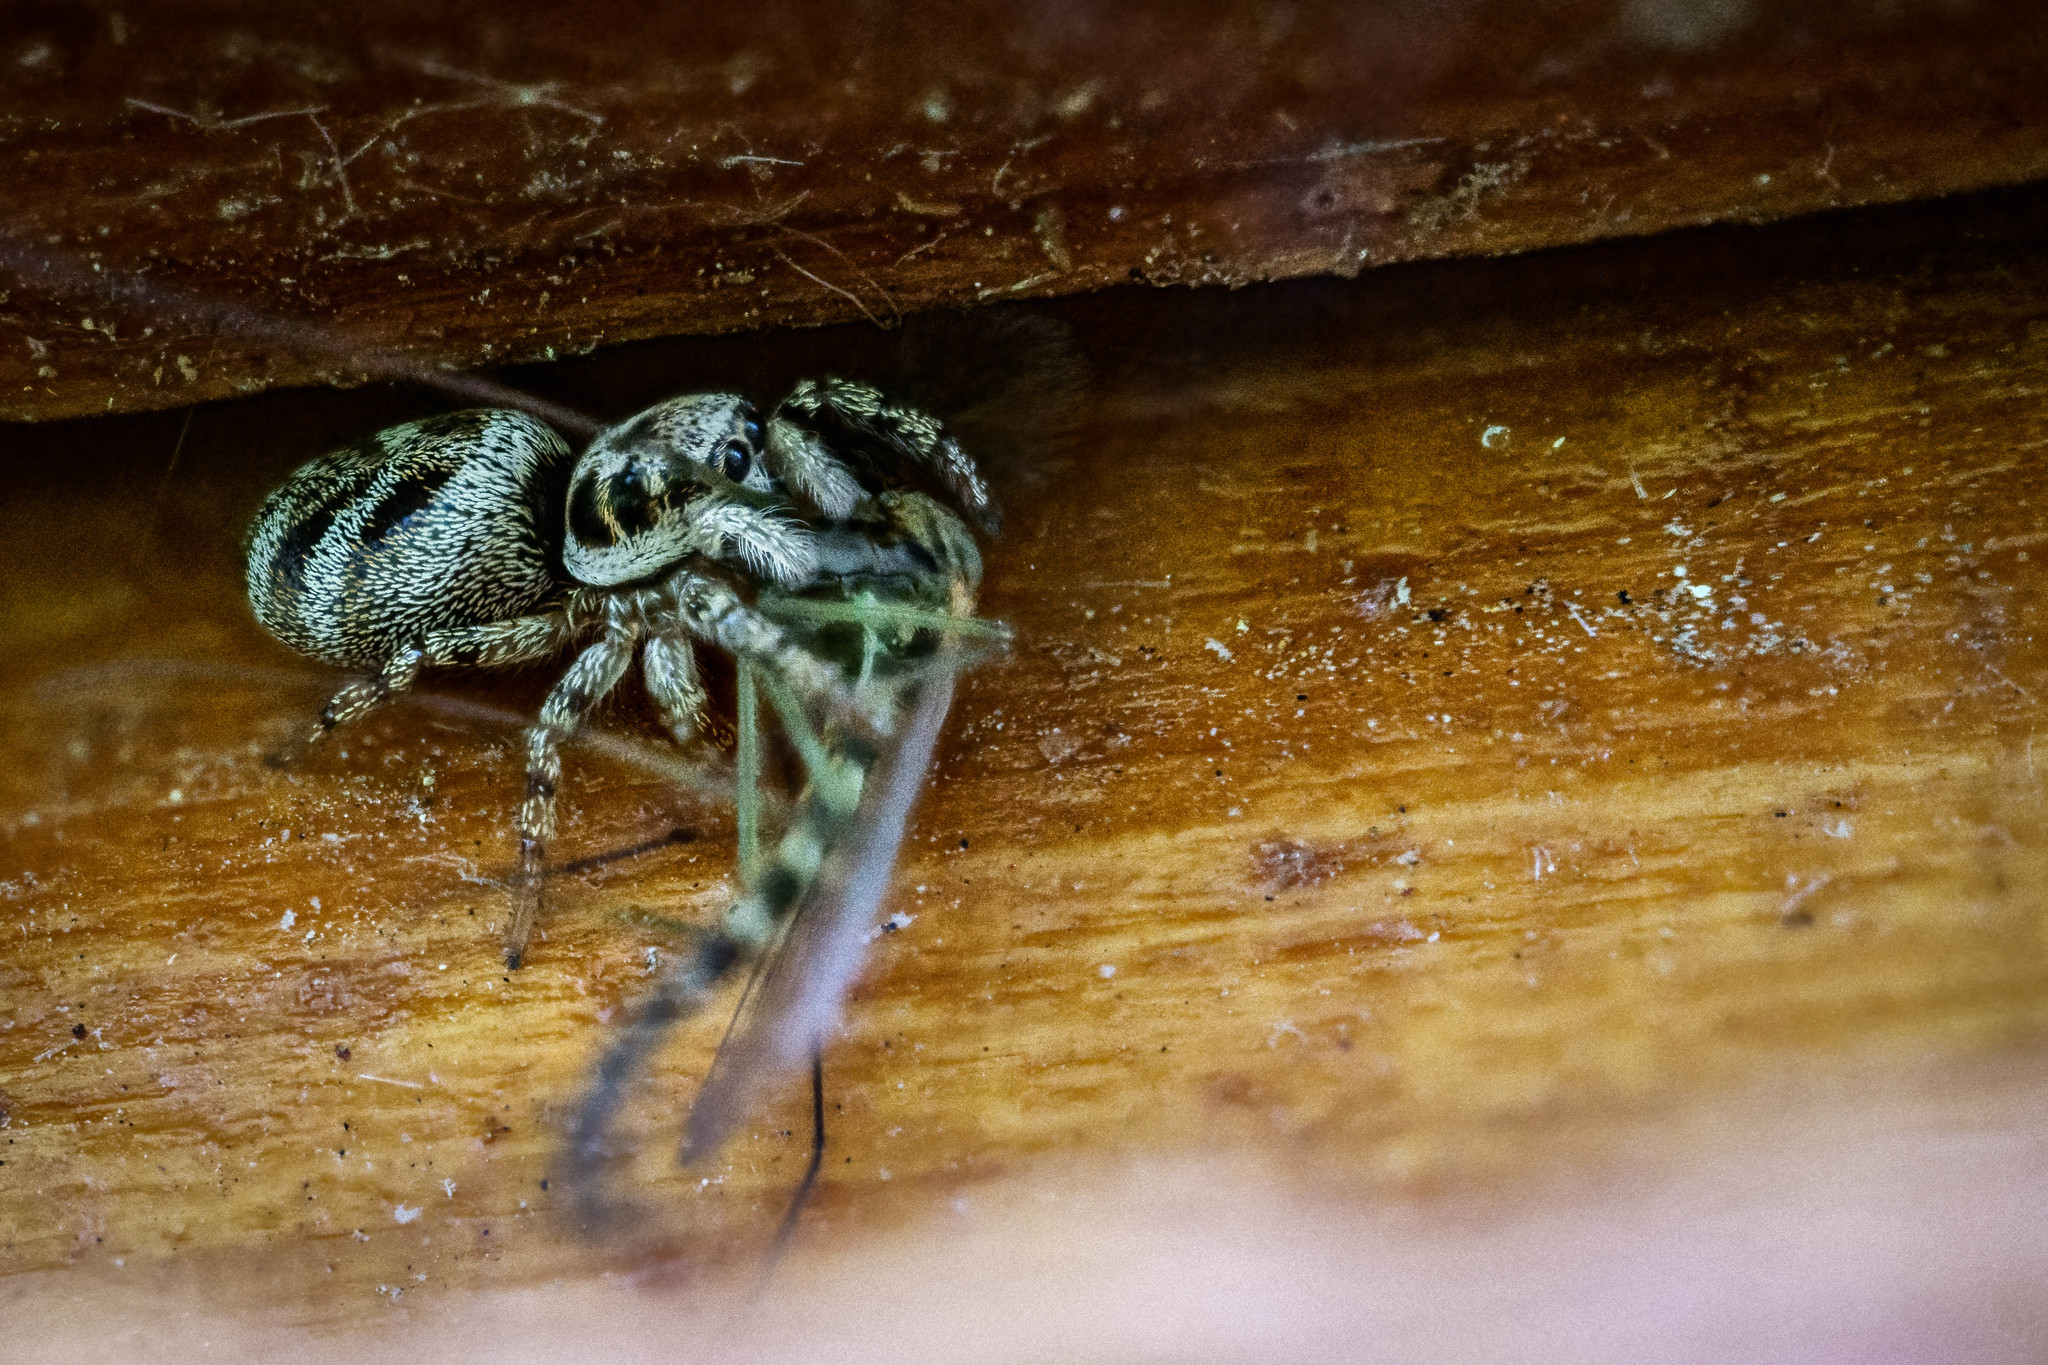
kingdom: Animalia
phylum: Arthropoda
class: Arachnida
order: Araneae
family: Salticidae
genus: Salticus
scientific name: Salticus scenicus
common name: Zebra jumper
